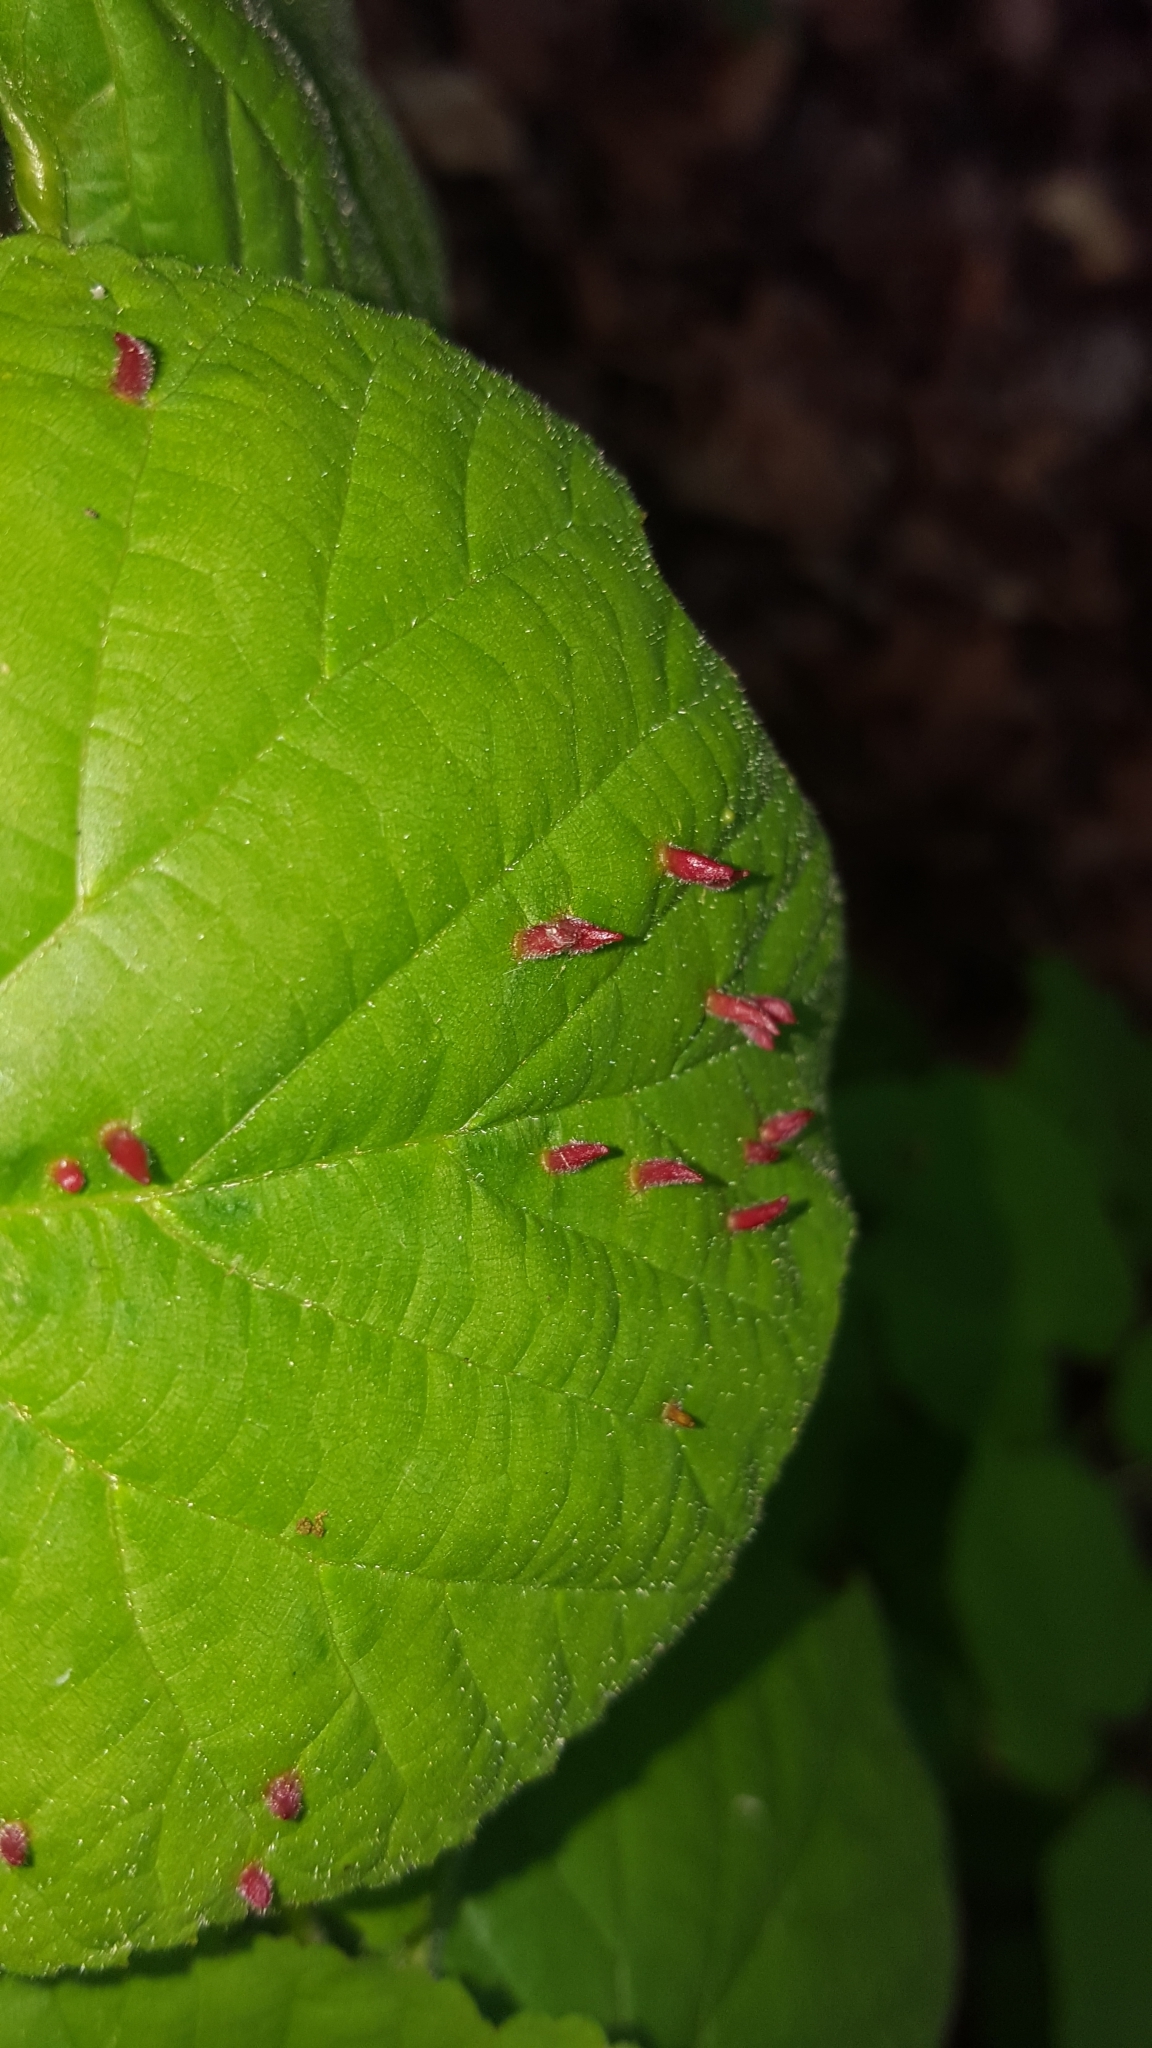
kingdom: Animalia
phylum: Arthropoda
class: Arachnida
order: Trombidiformes
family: Eriophyidae
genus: Eriophyes
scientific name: Eriophyes tiliae
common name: Red nail gall mite
